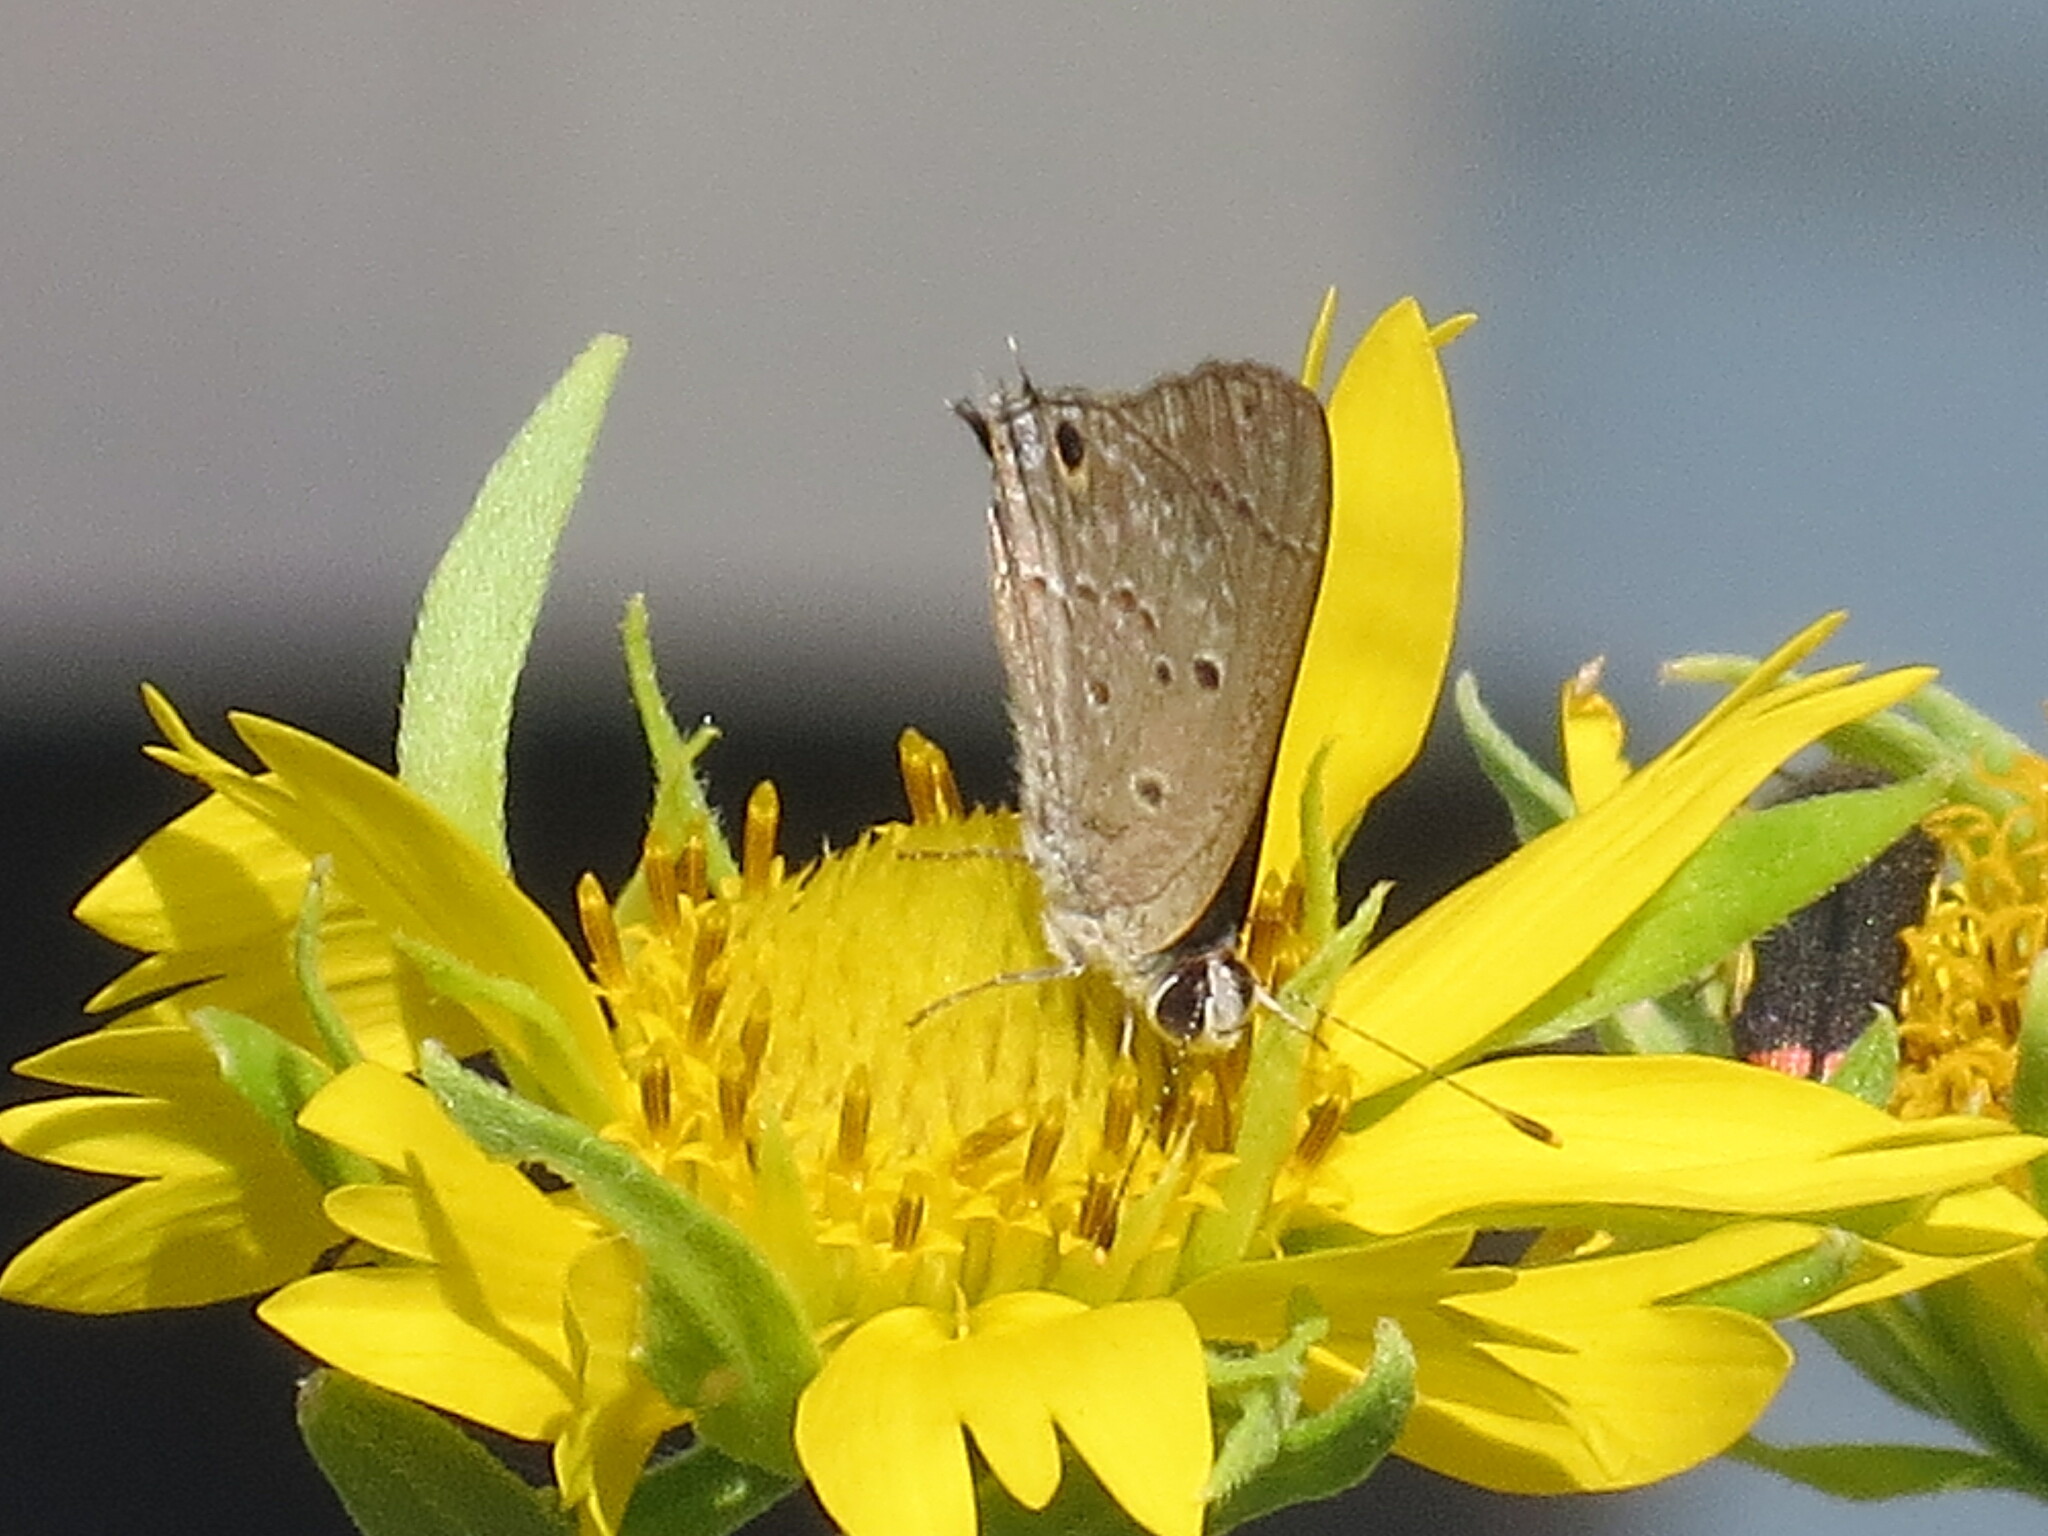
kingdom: Animalia
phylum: Arthropoda
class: Insecta
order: Lepidoptera
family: Lycaenidae
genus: Callicista
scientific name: Callicista columella
